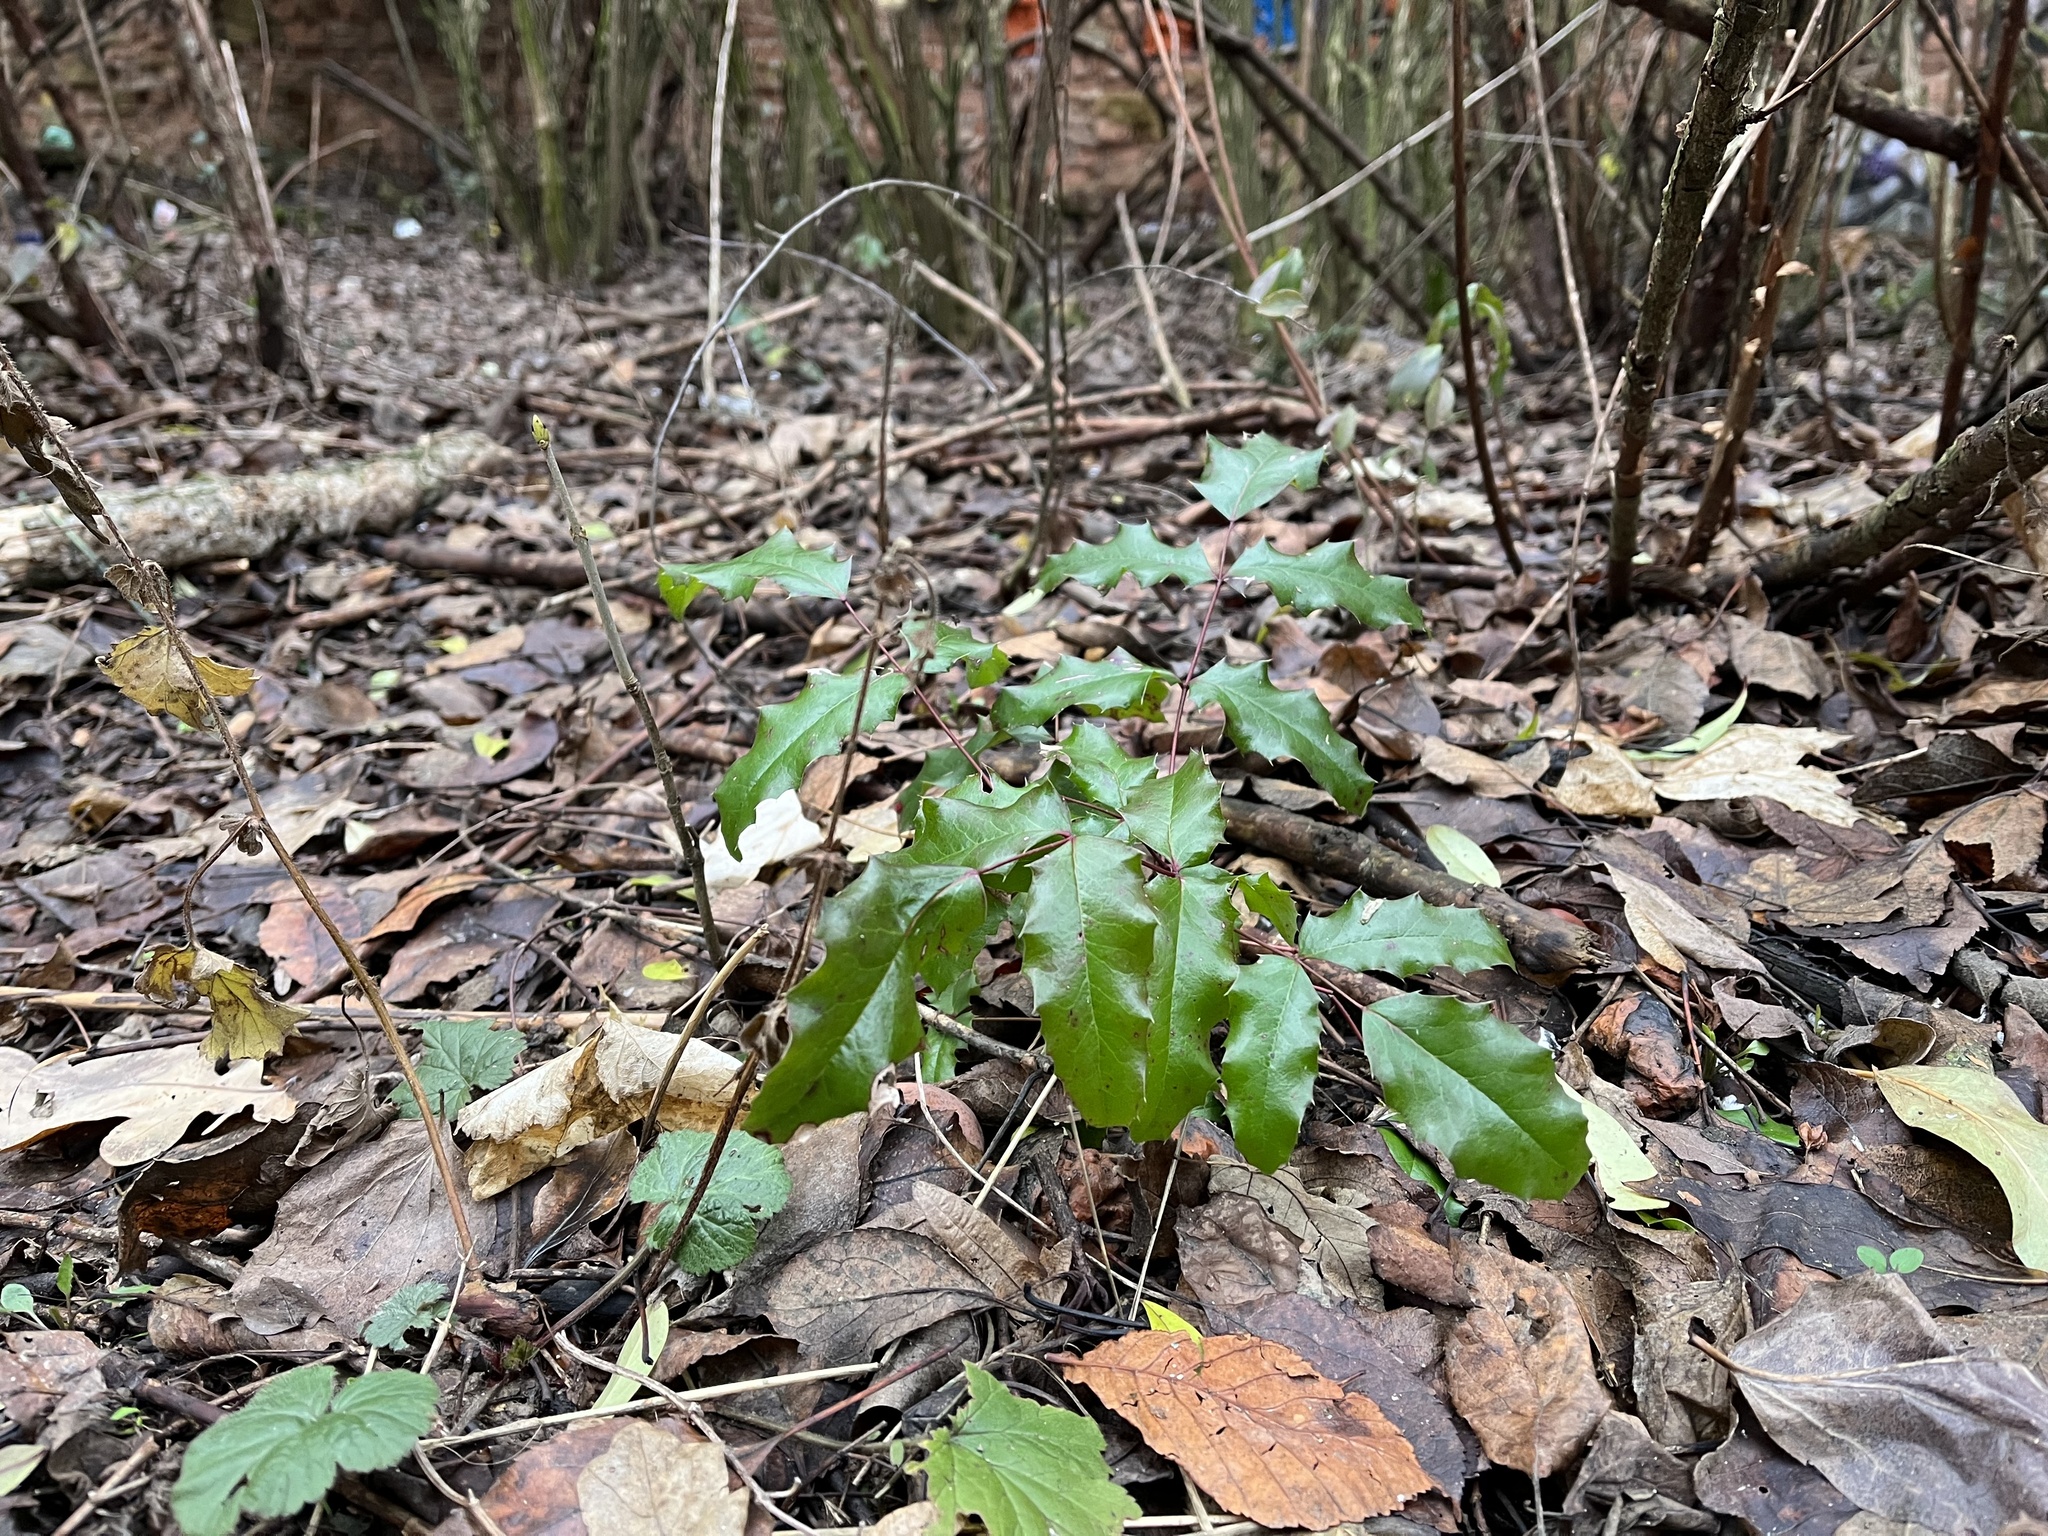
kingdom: Plantae
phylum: Tracheophyta
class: Magnoliopsida
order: Ranunculales
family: Berberidaceae
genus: Mahonia
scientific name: Mahonia aquifolium
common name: Oregon-grape
